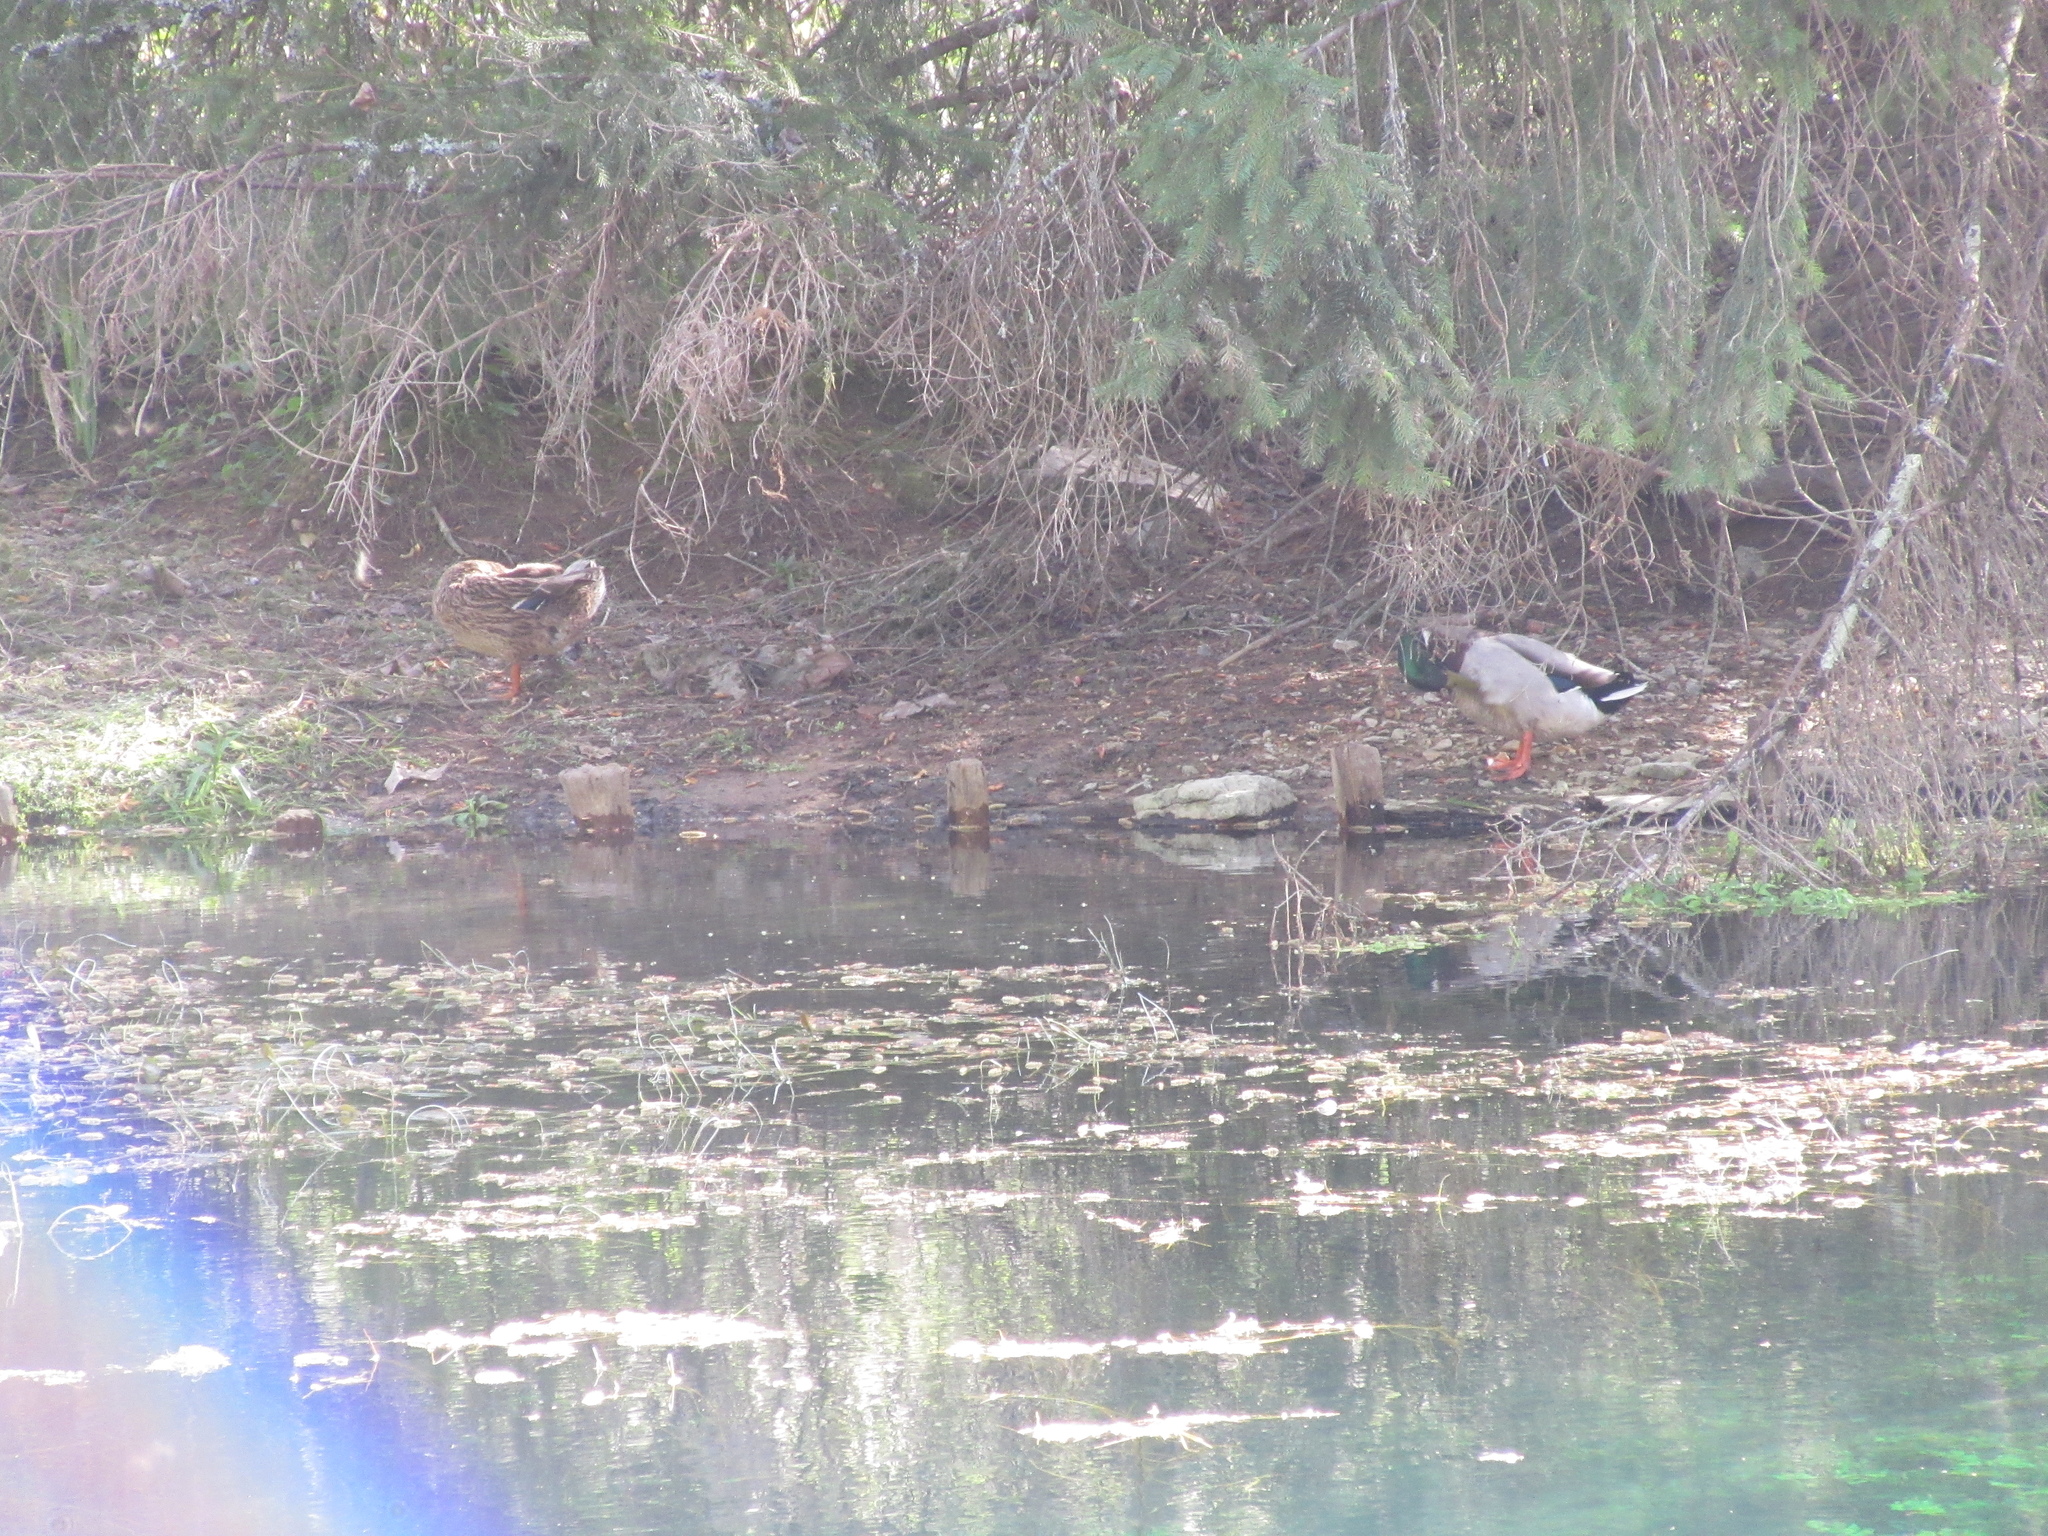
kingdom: Animalia
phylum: Chordata
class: Aves
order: Anseriformes
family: Anatidae
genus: Anas
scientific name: Anas platyrhynchos
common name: Mallard
